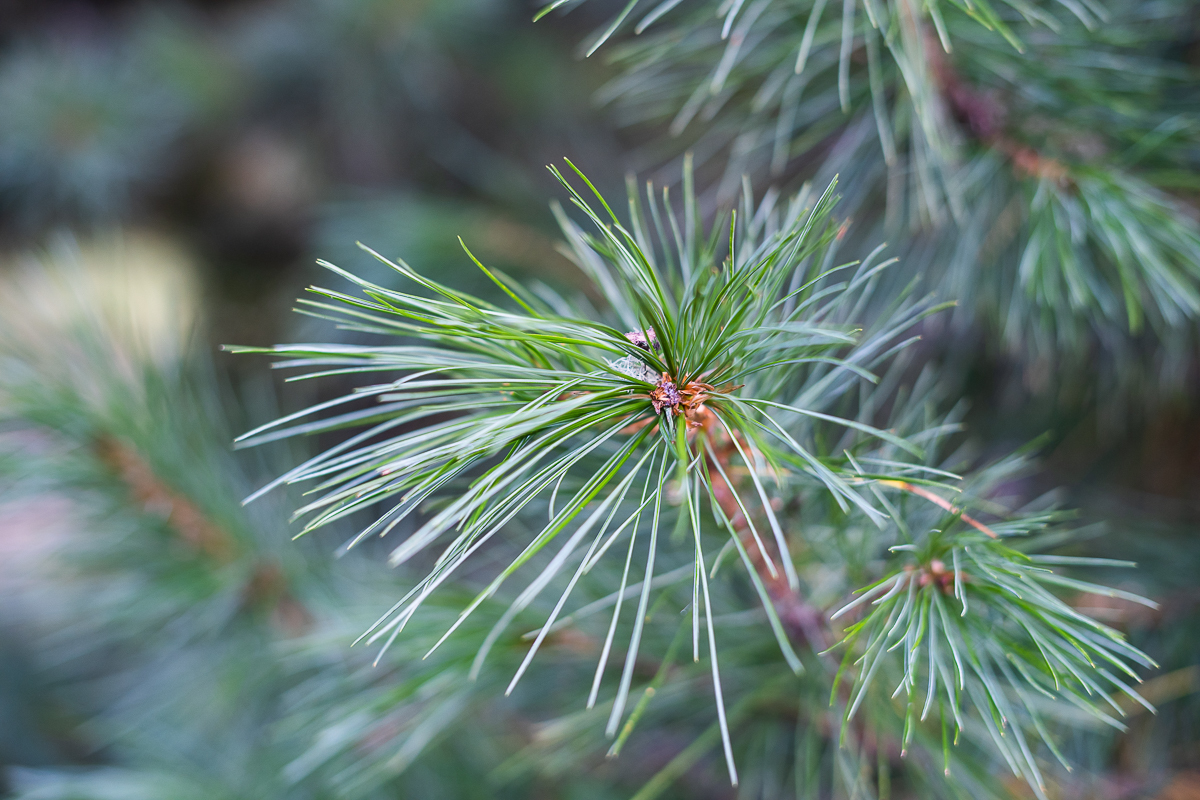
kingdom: Plantae
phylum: Tracheophyta
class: Pinopsida
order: Pinales
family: Pinaceae
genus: Pinus
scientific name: Pinus sibirica
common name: Siberian pine
